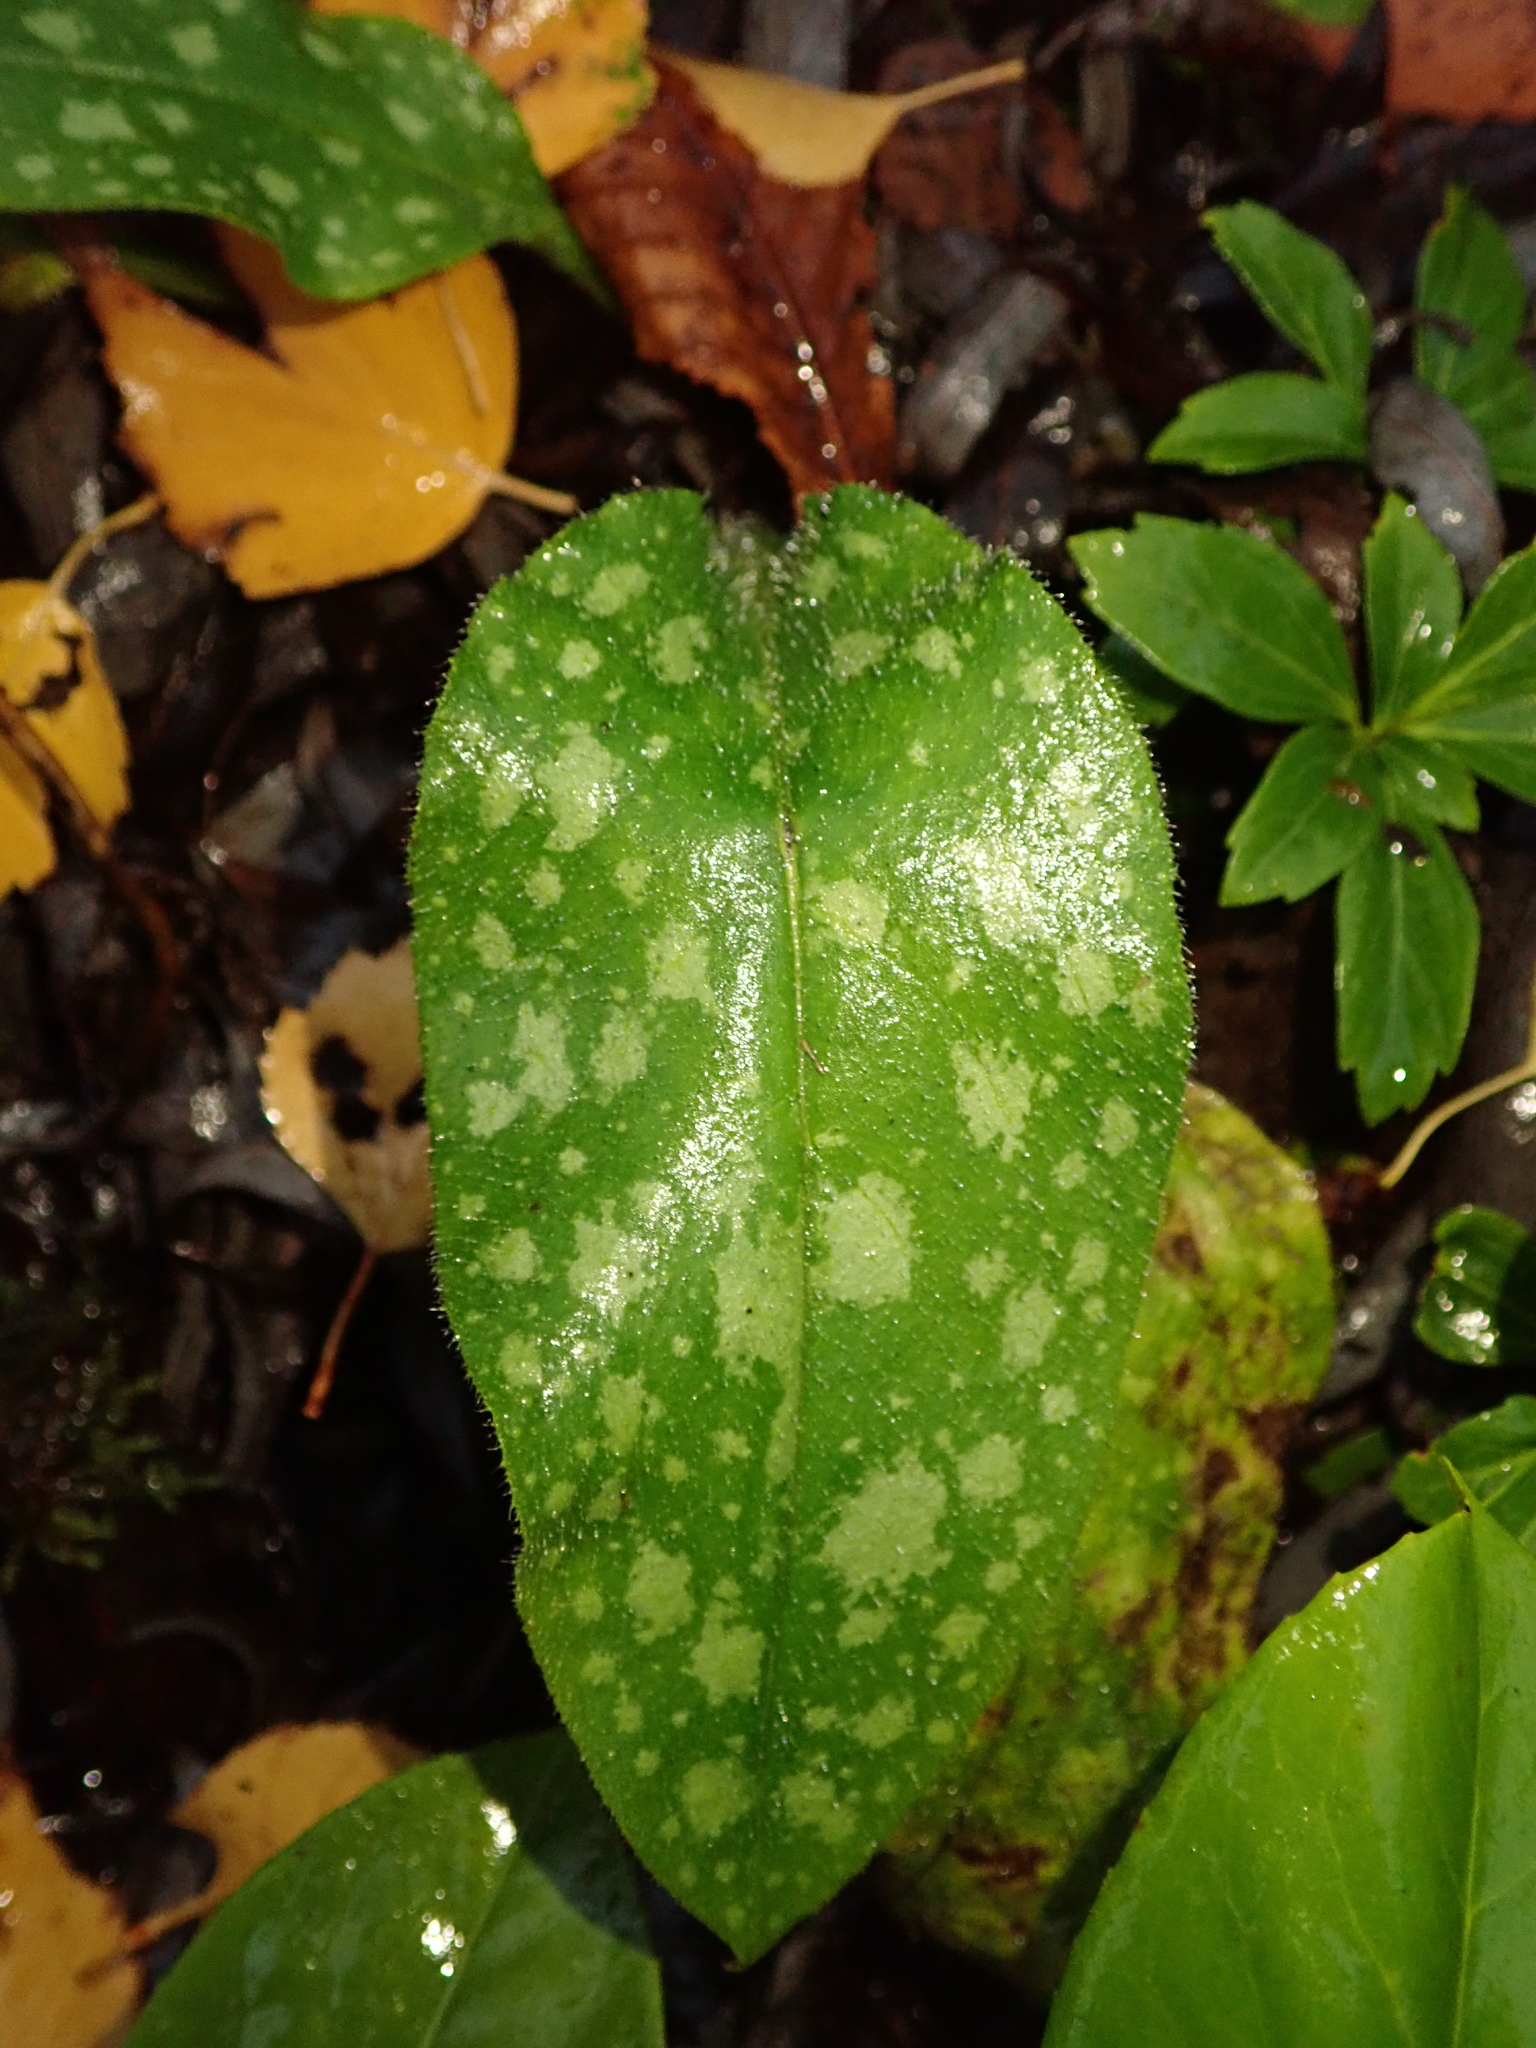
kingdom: Plantae
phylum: Tracheophyta
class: Magnoliopsida
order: Boraginales
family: Boraginaceae
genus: Pulmonaria
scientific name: Pulmonaria officinalis
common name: Lungwort
